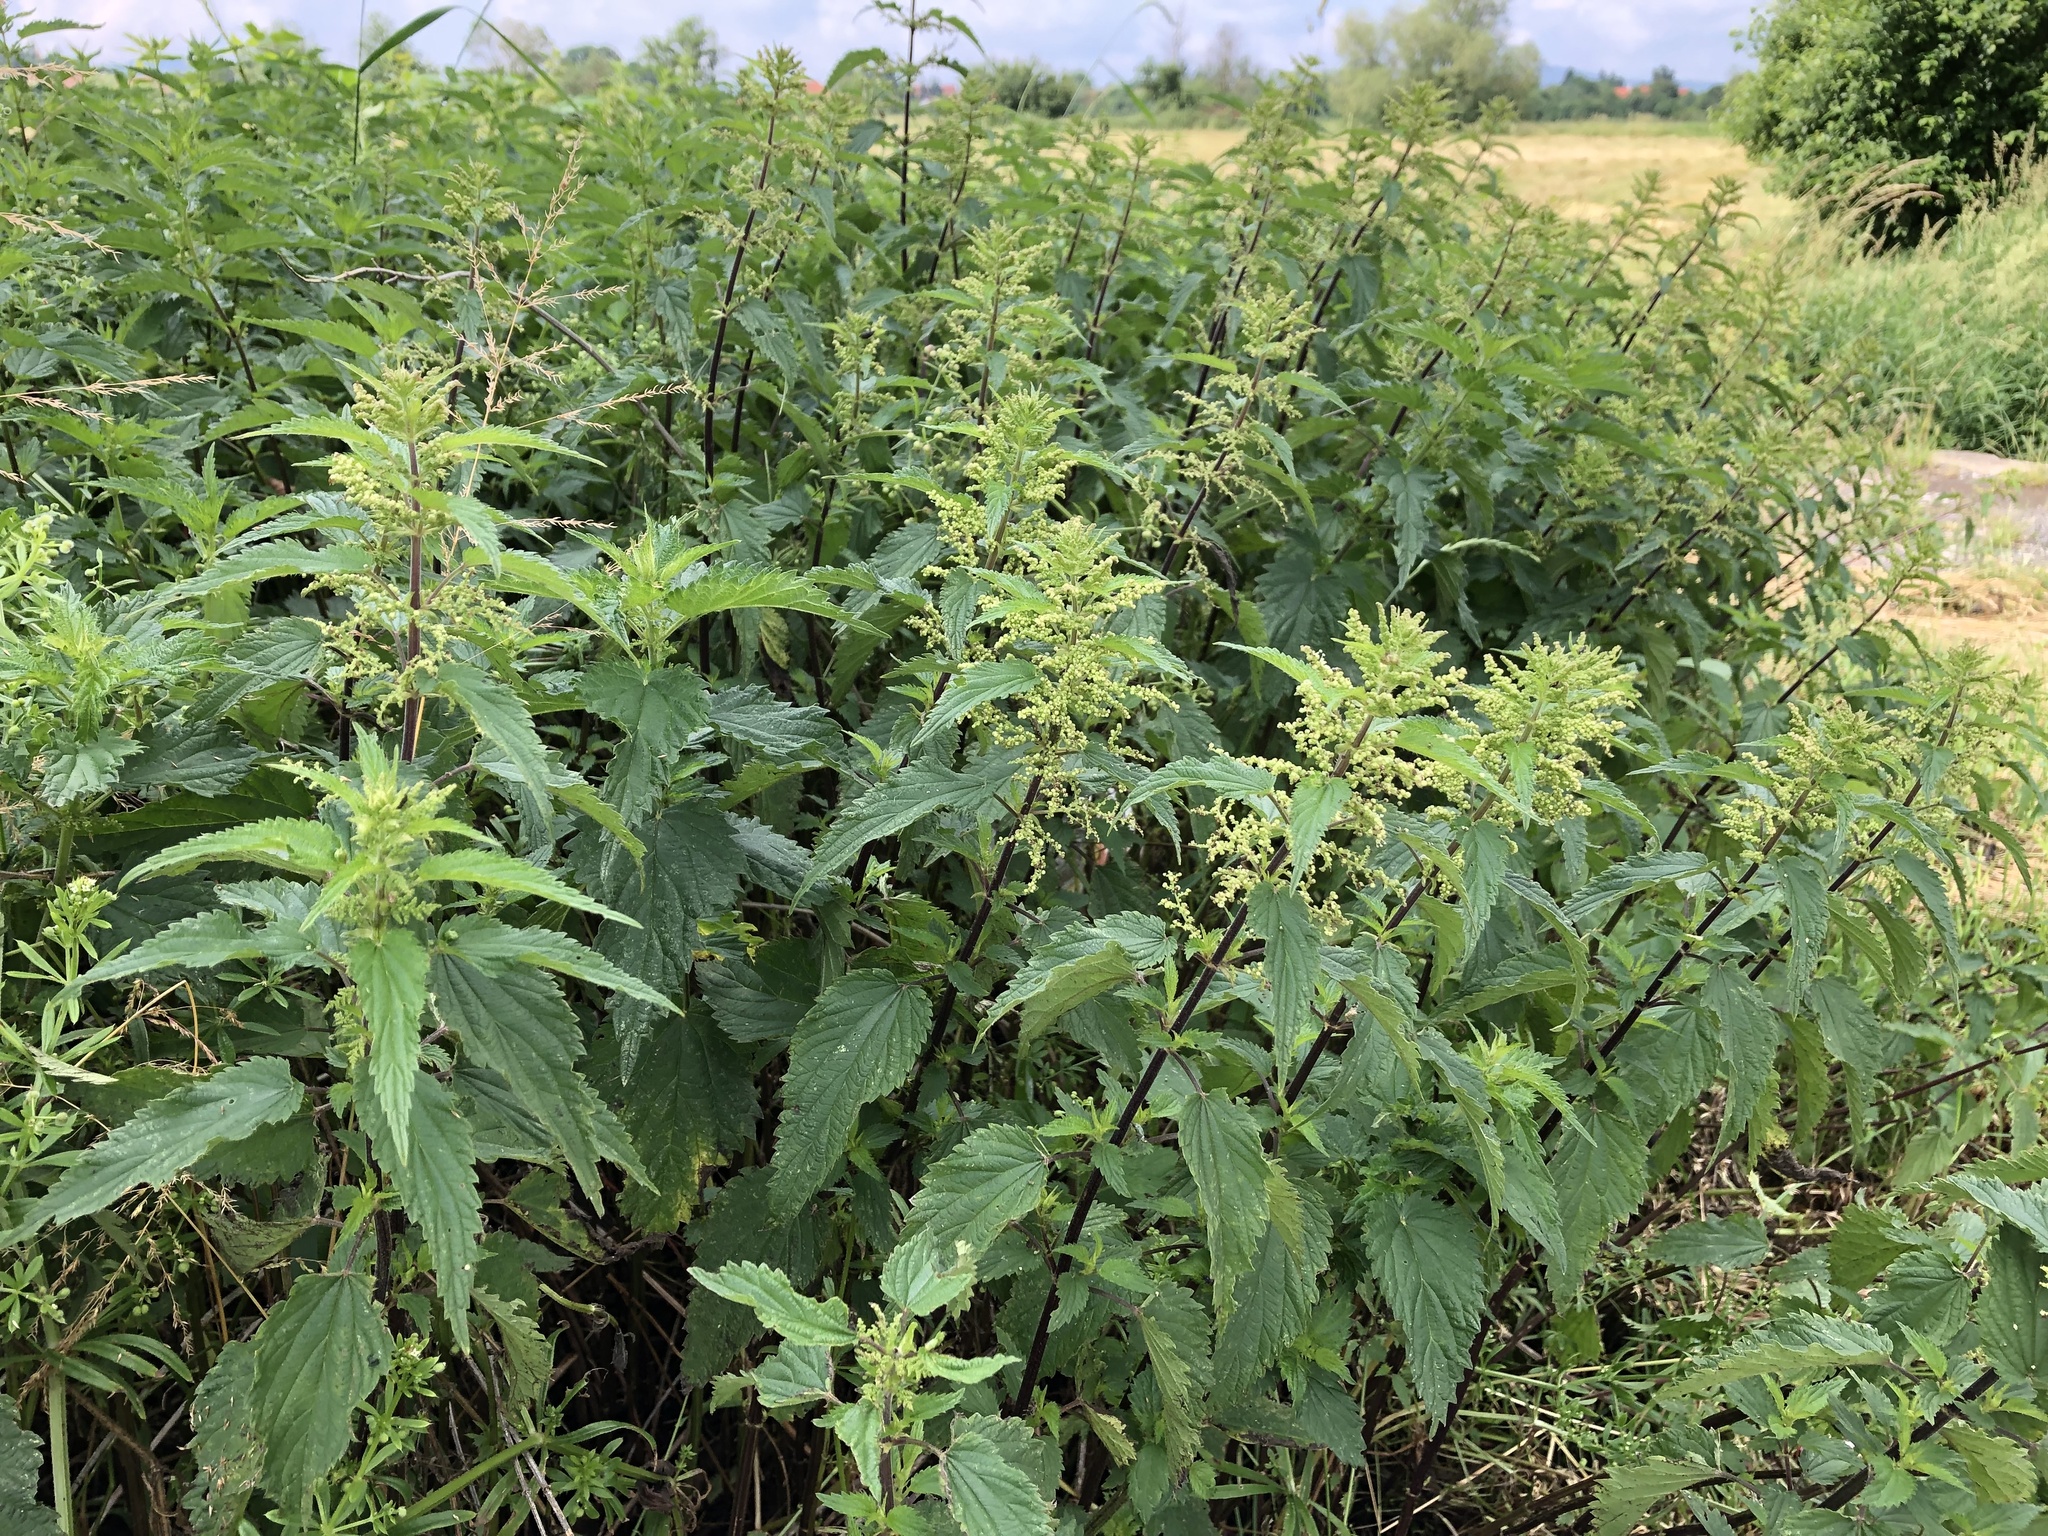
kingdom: Plantae
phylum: Tracheophyta
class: Magnoliopsida
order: Rosales
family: Urticaceae
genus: Urtica
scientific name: Urtica dioica
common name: Common nettle
